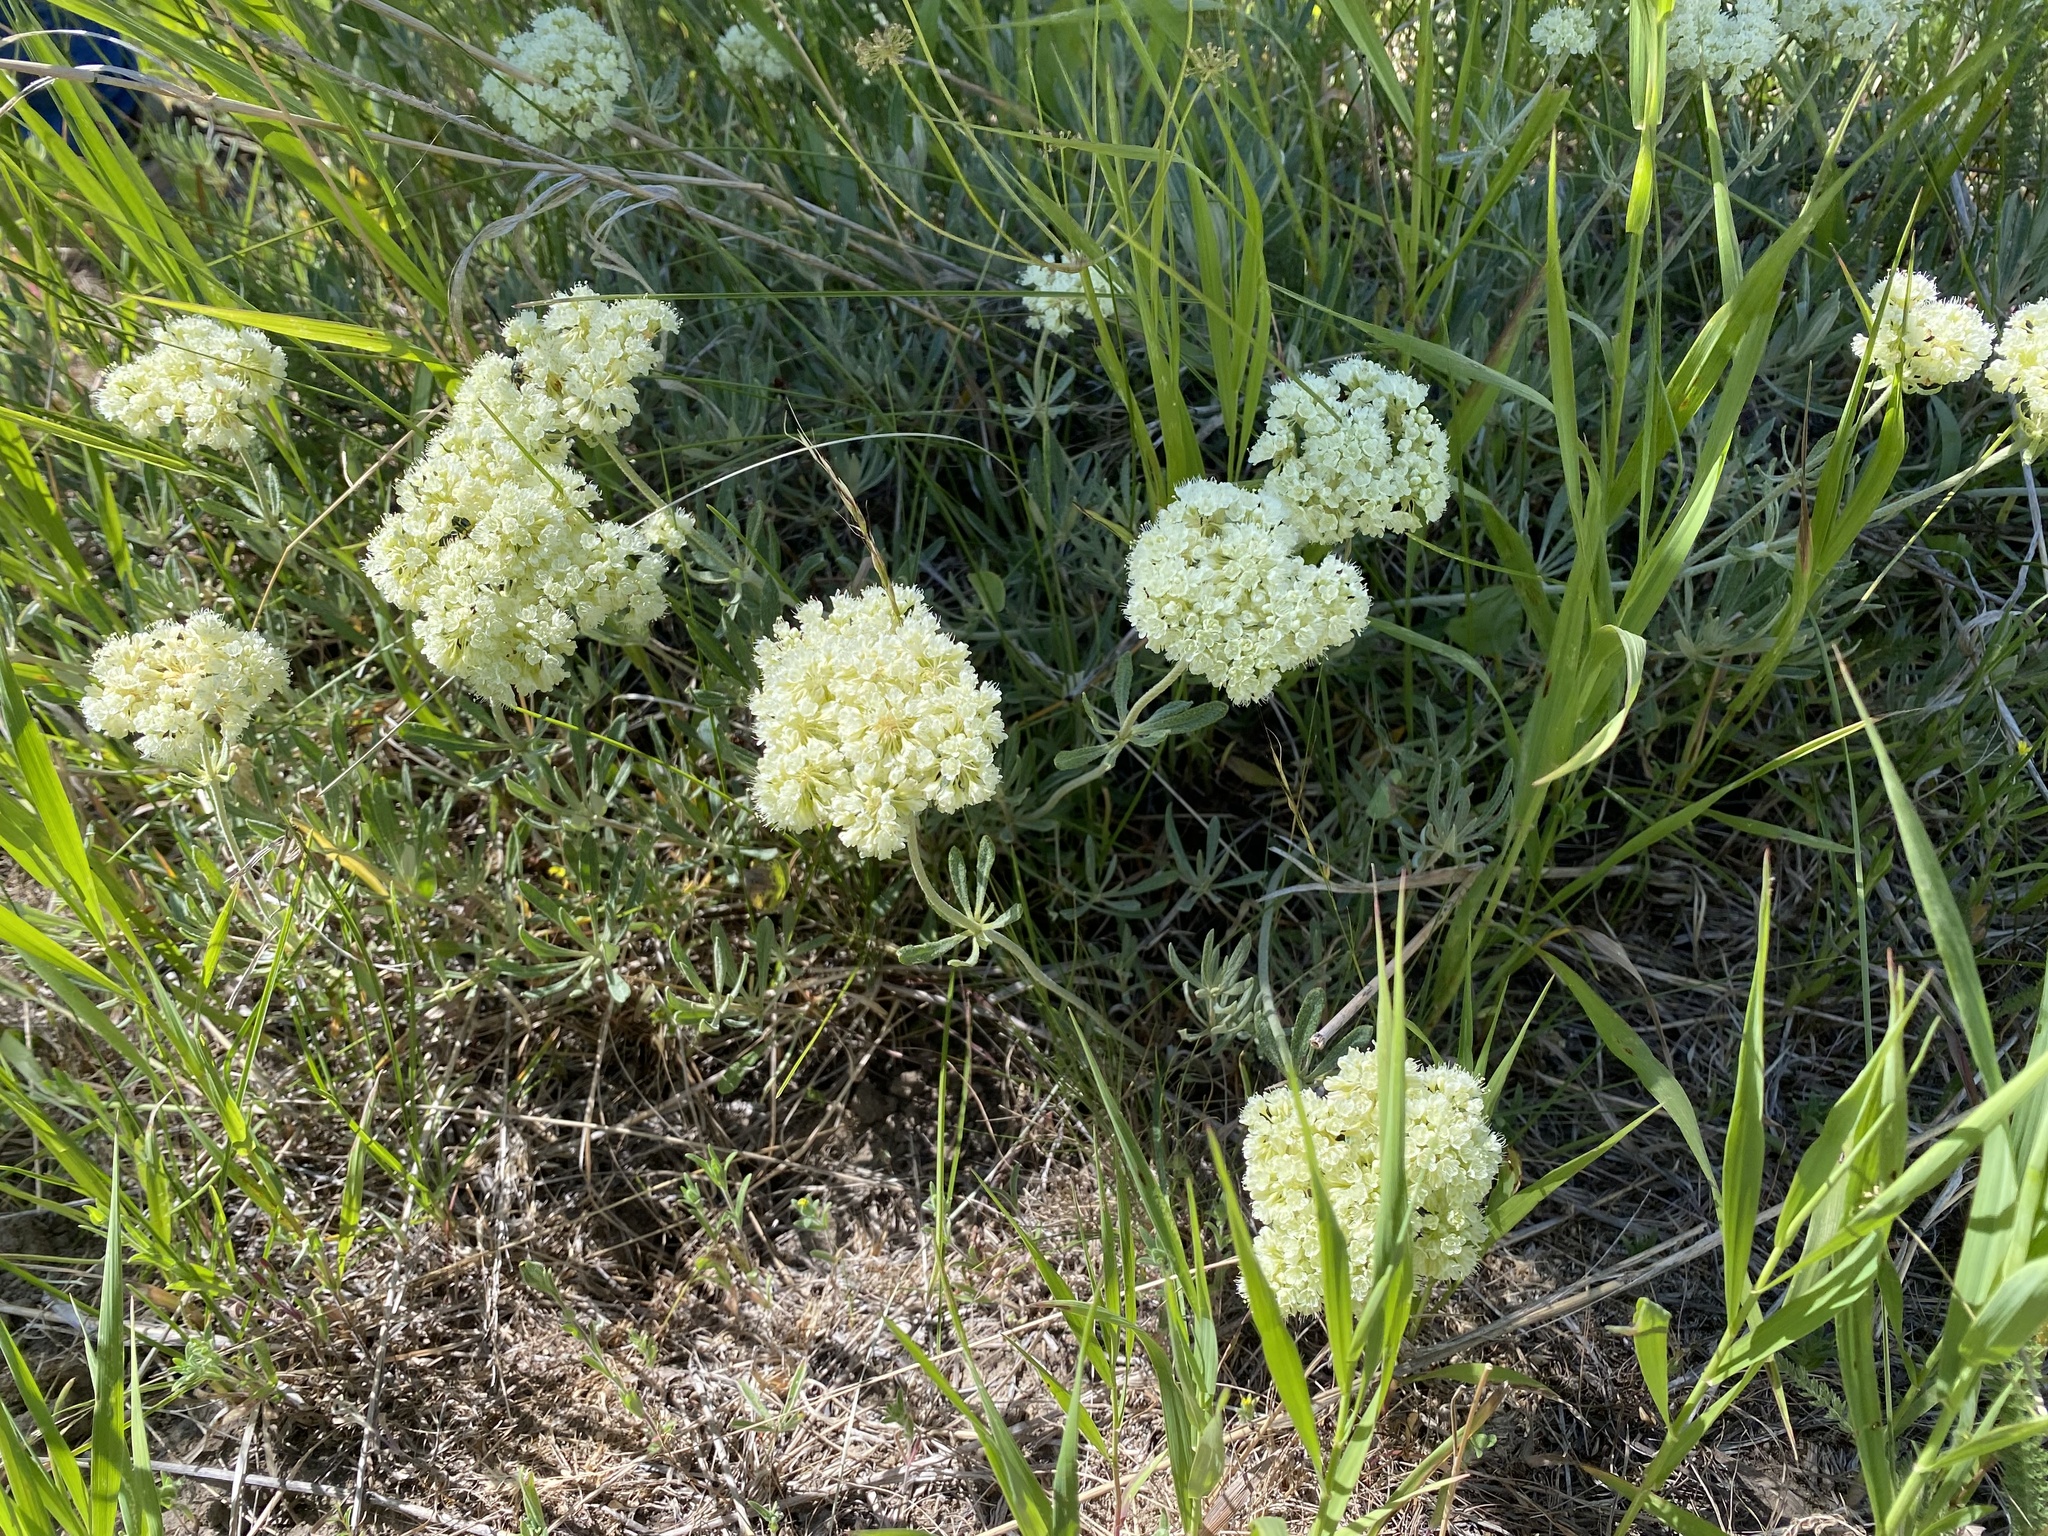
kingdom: Plantae
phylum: Tracheophyta
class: Magnoliopsida
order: Caryophyllales
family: Polygonaceae
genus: Eriogonum
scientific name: Eriogonum heracleoides
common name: Wyeth's buckwheat
